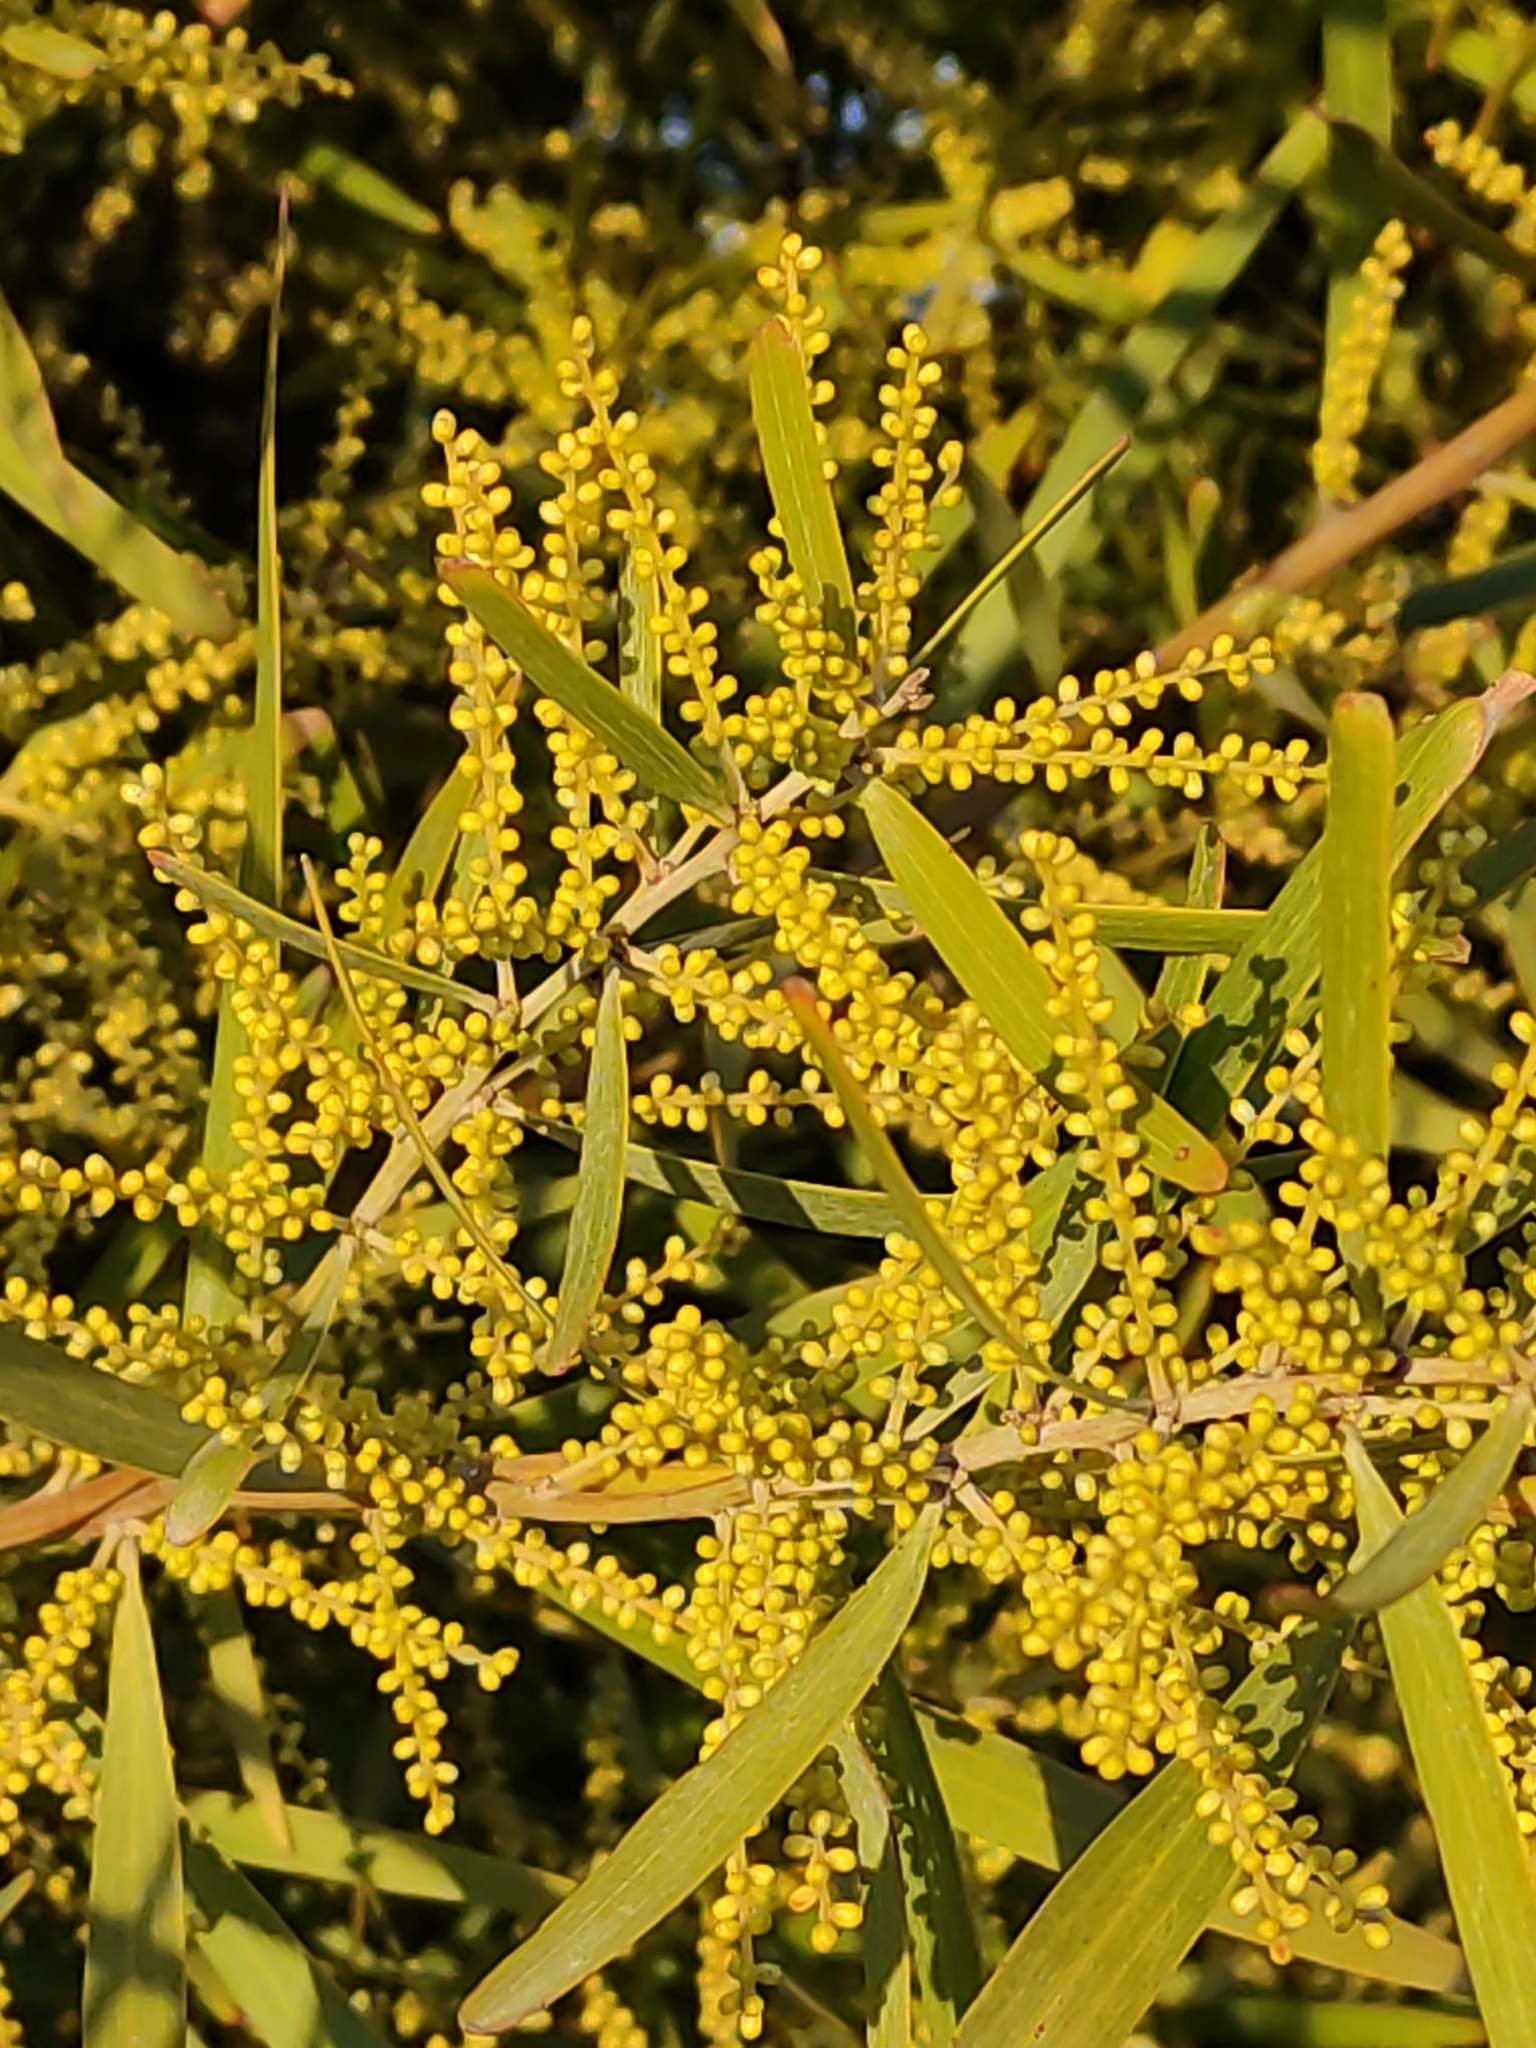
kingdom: Plantae
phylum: Tracheophyta
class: Magnoliopsida
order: Fabales
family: Fabaceae
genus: Acacia
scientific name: Acacia floribunda
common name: Gossamer wattle
